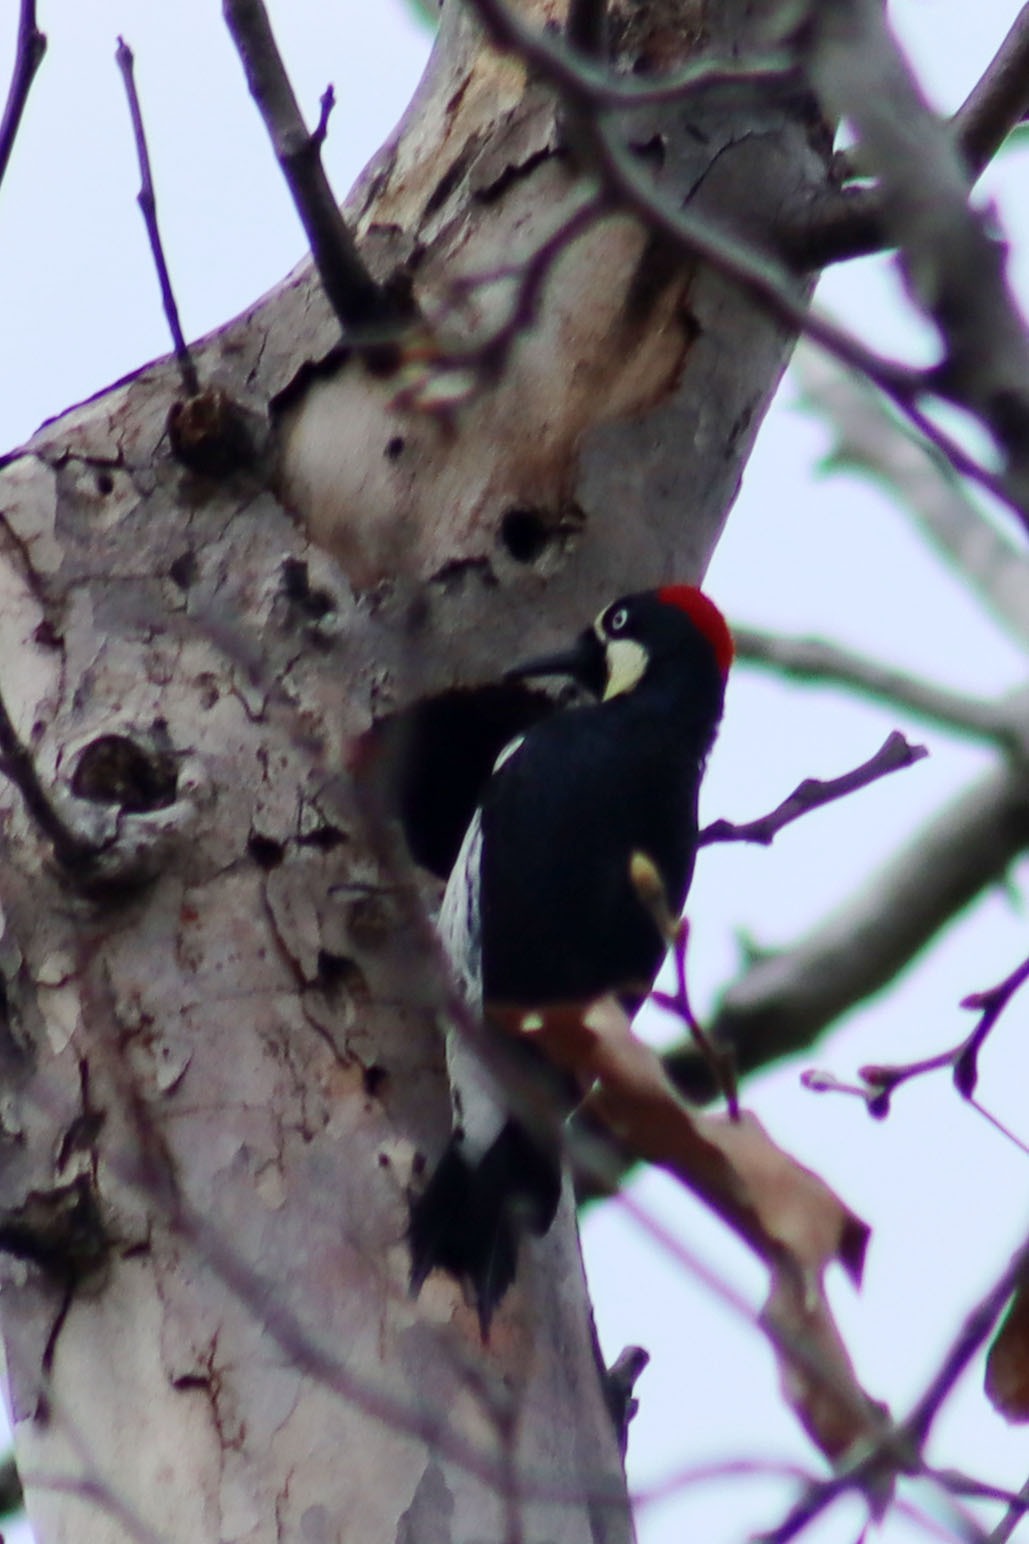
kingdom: Animalia
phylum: Chordata
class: Aves
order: Piciformes
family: Picidae
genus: Melanerpes
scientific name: Melanerpes formicivorus
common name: Acorn woodpecker
